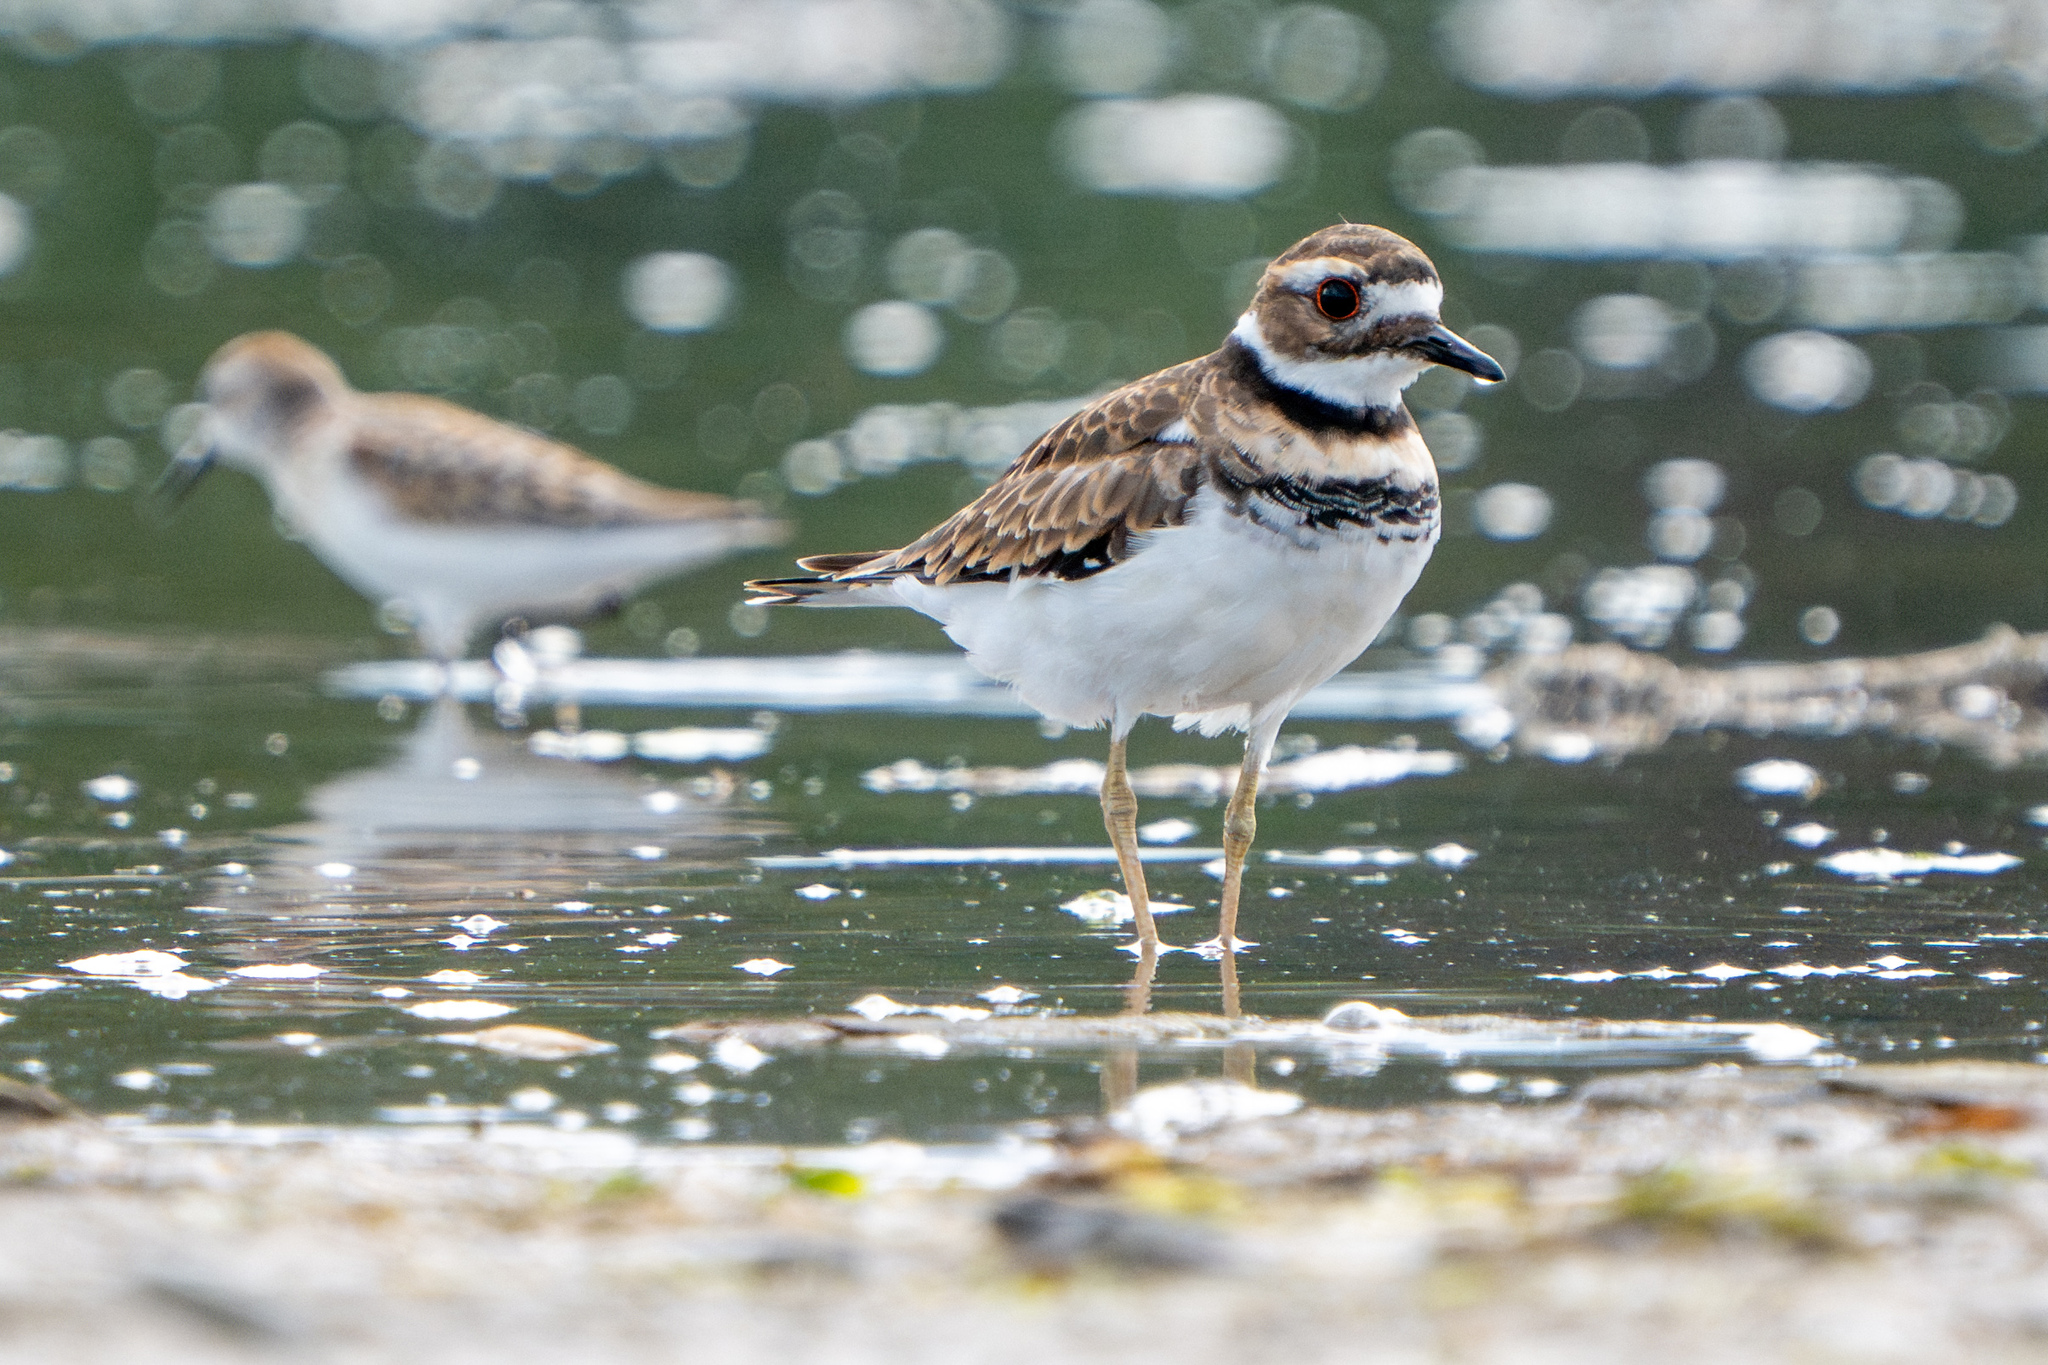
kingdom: Animalia
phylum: Chordata
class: Aves
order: Charadriiformes
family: Charadriidae
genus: Charadrius
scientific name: Charadrius vociferus
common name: Killdeer
